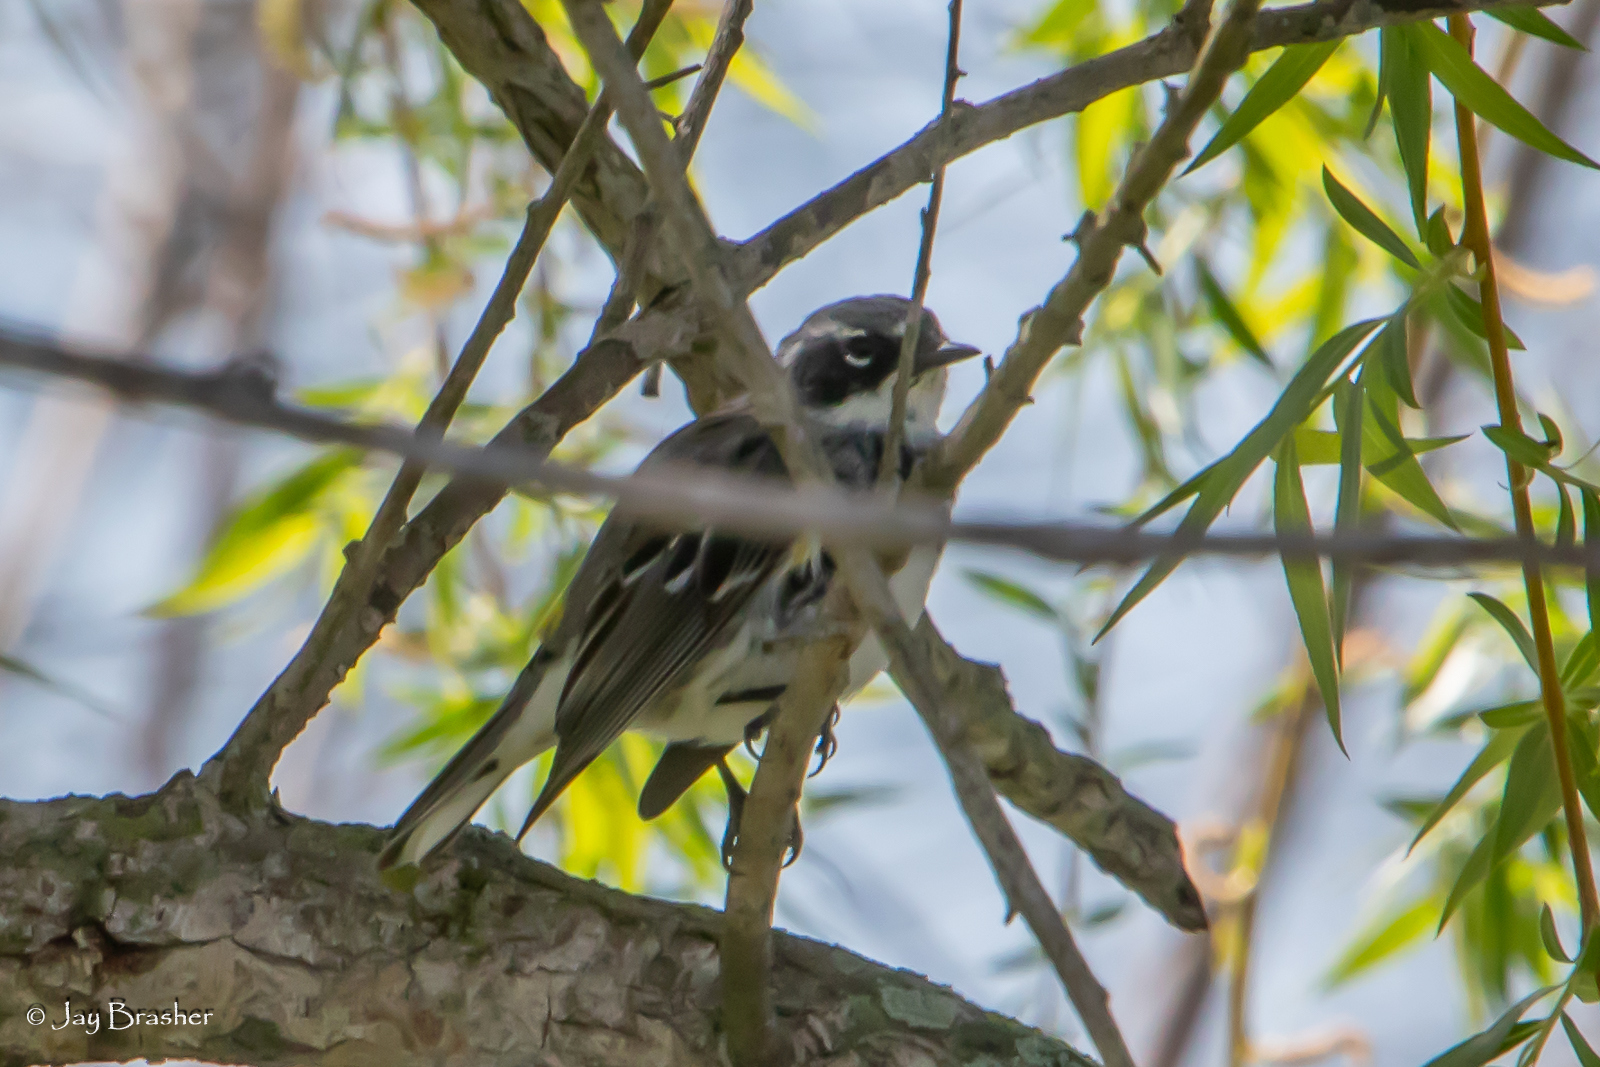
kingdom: Animalia
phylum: Chordata
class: Aves
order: Passeriformes
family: Parulidae
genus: Setophaga
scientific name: Setophaga coronata
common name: Myrtle warbler
